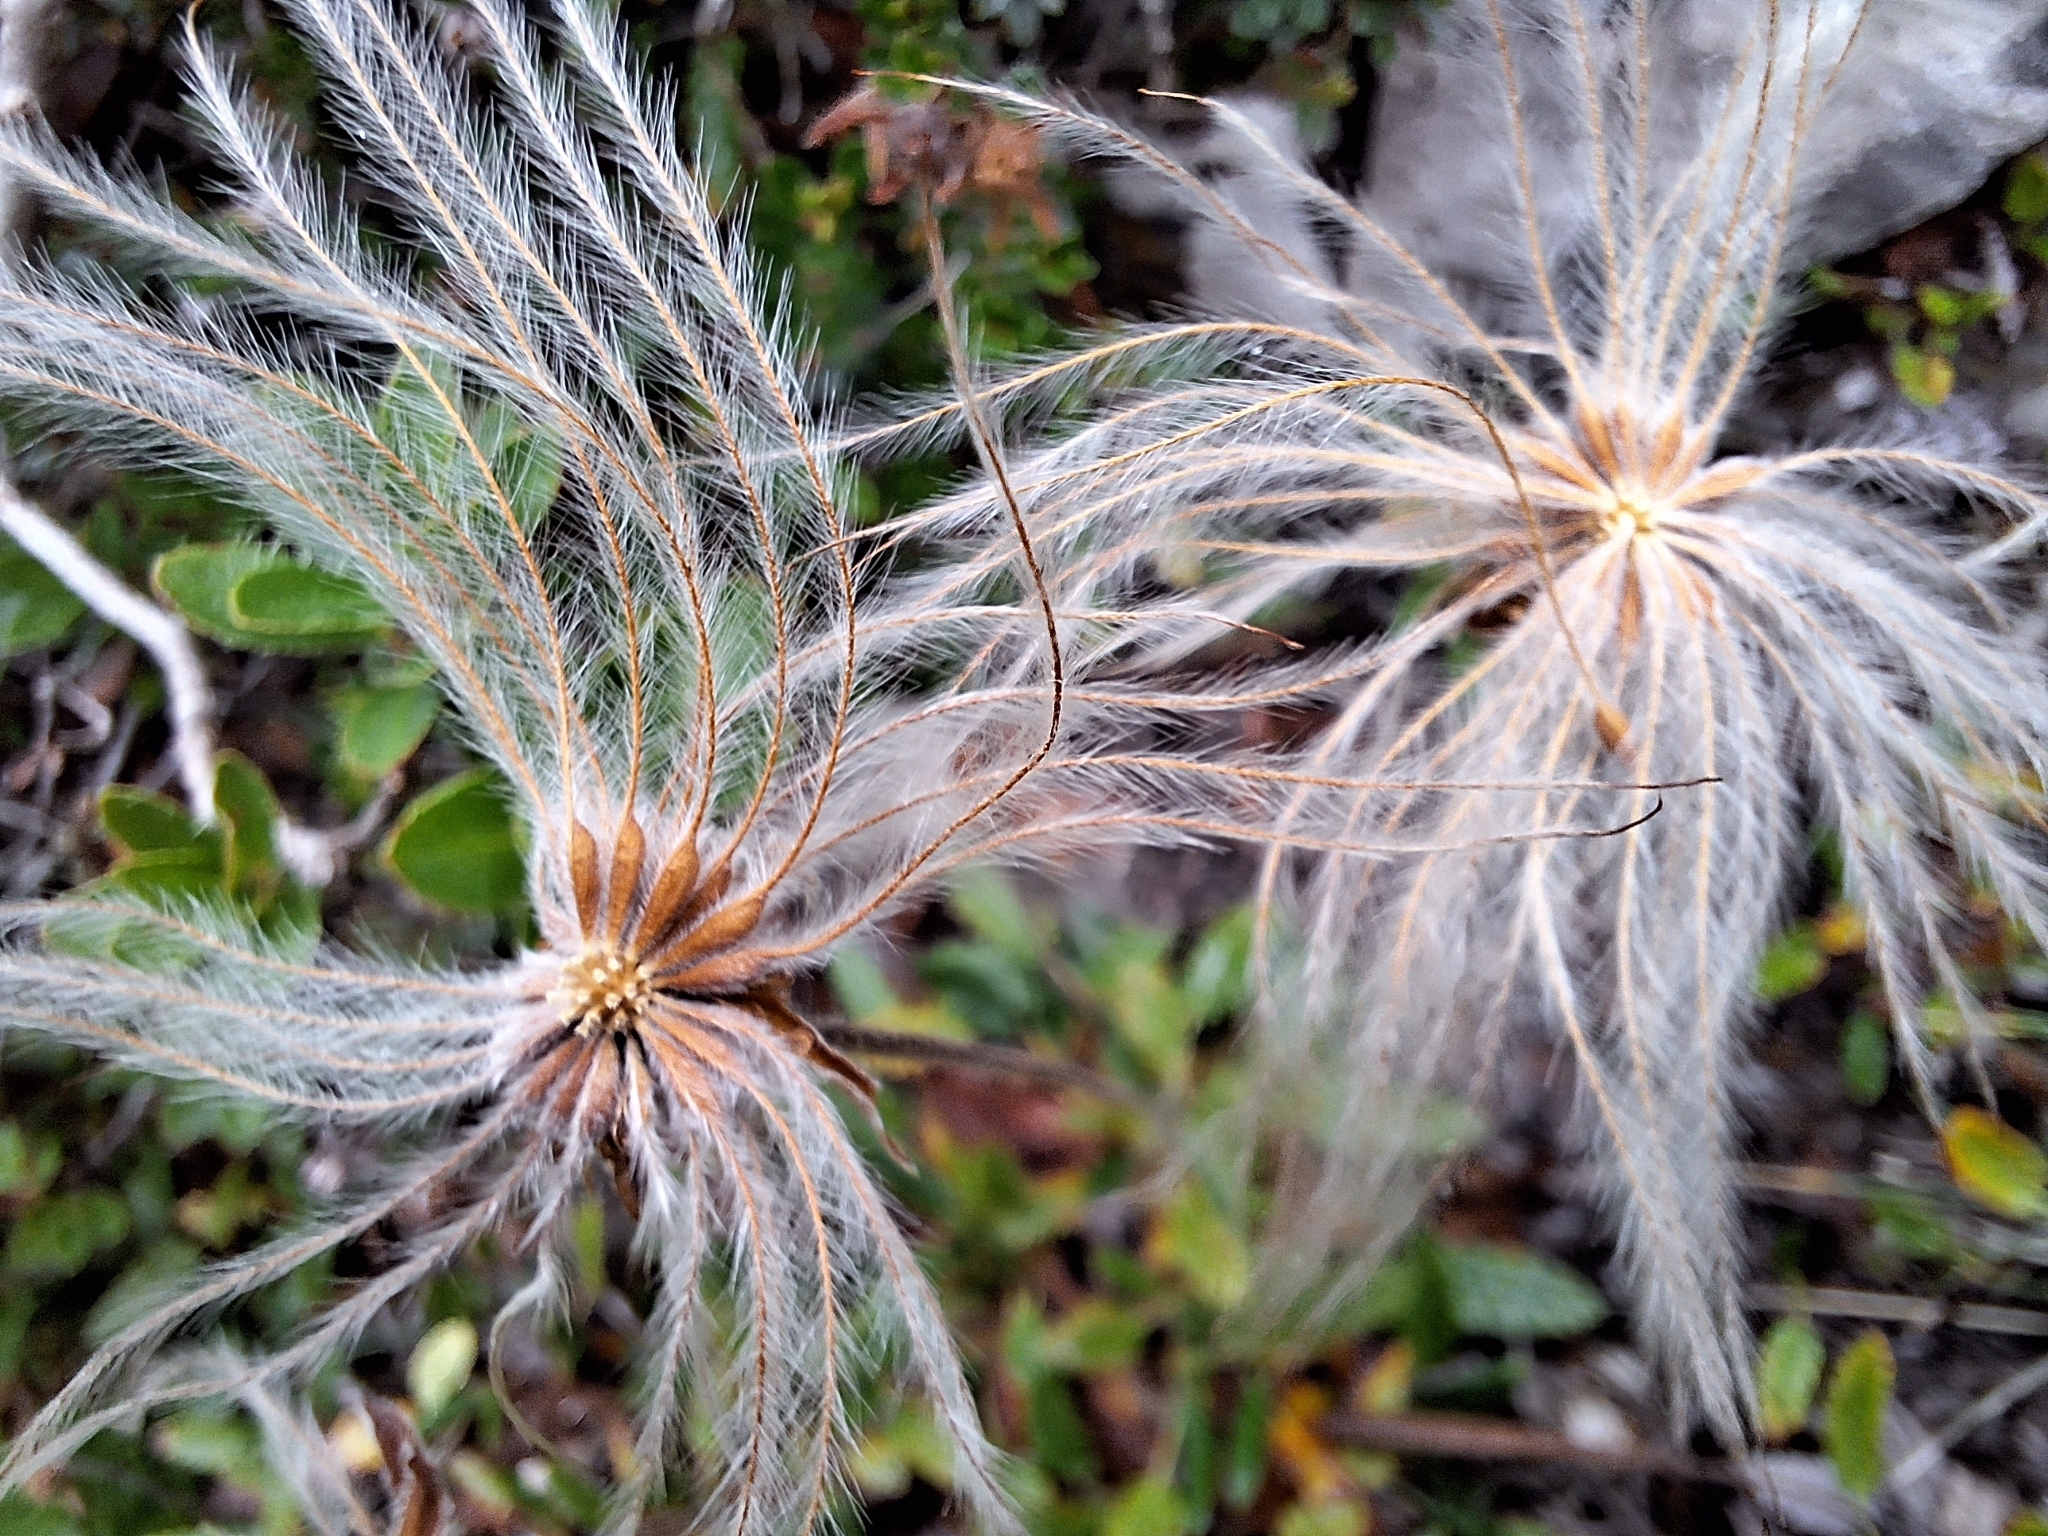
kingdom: Plantae
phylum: Tracheophyta
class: Magnoliopsida
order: Rosales
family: Rosaceae
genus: Dryas
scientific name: Dryas octopetala
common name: Eight-petal mountain-avens
